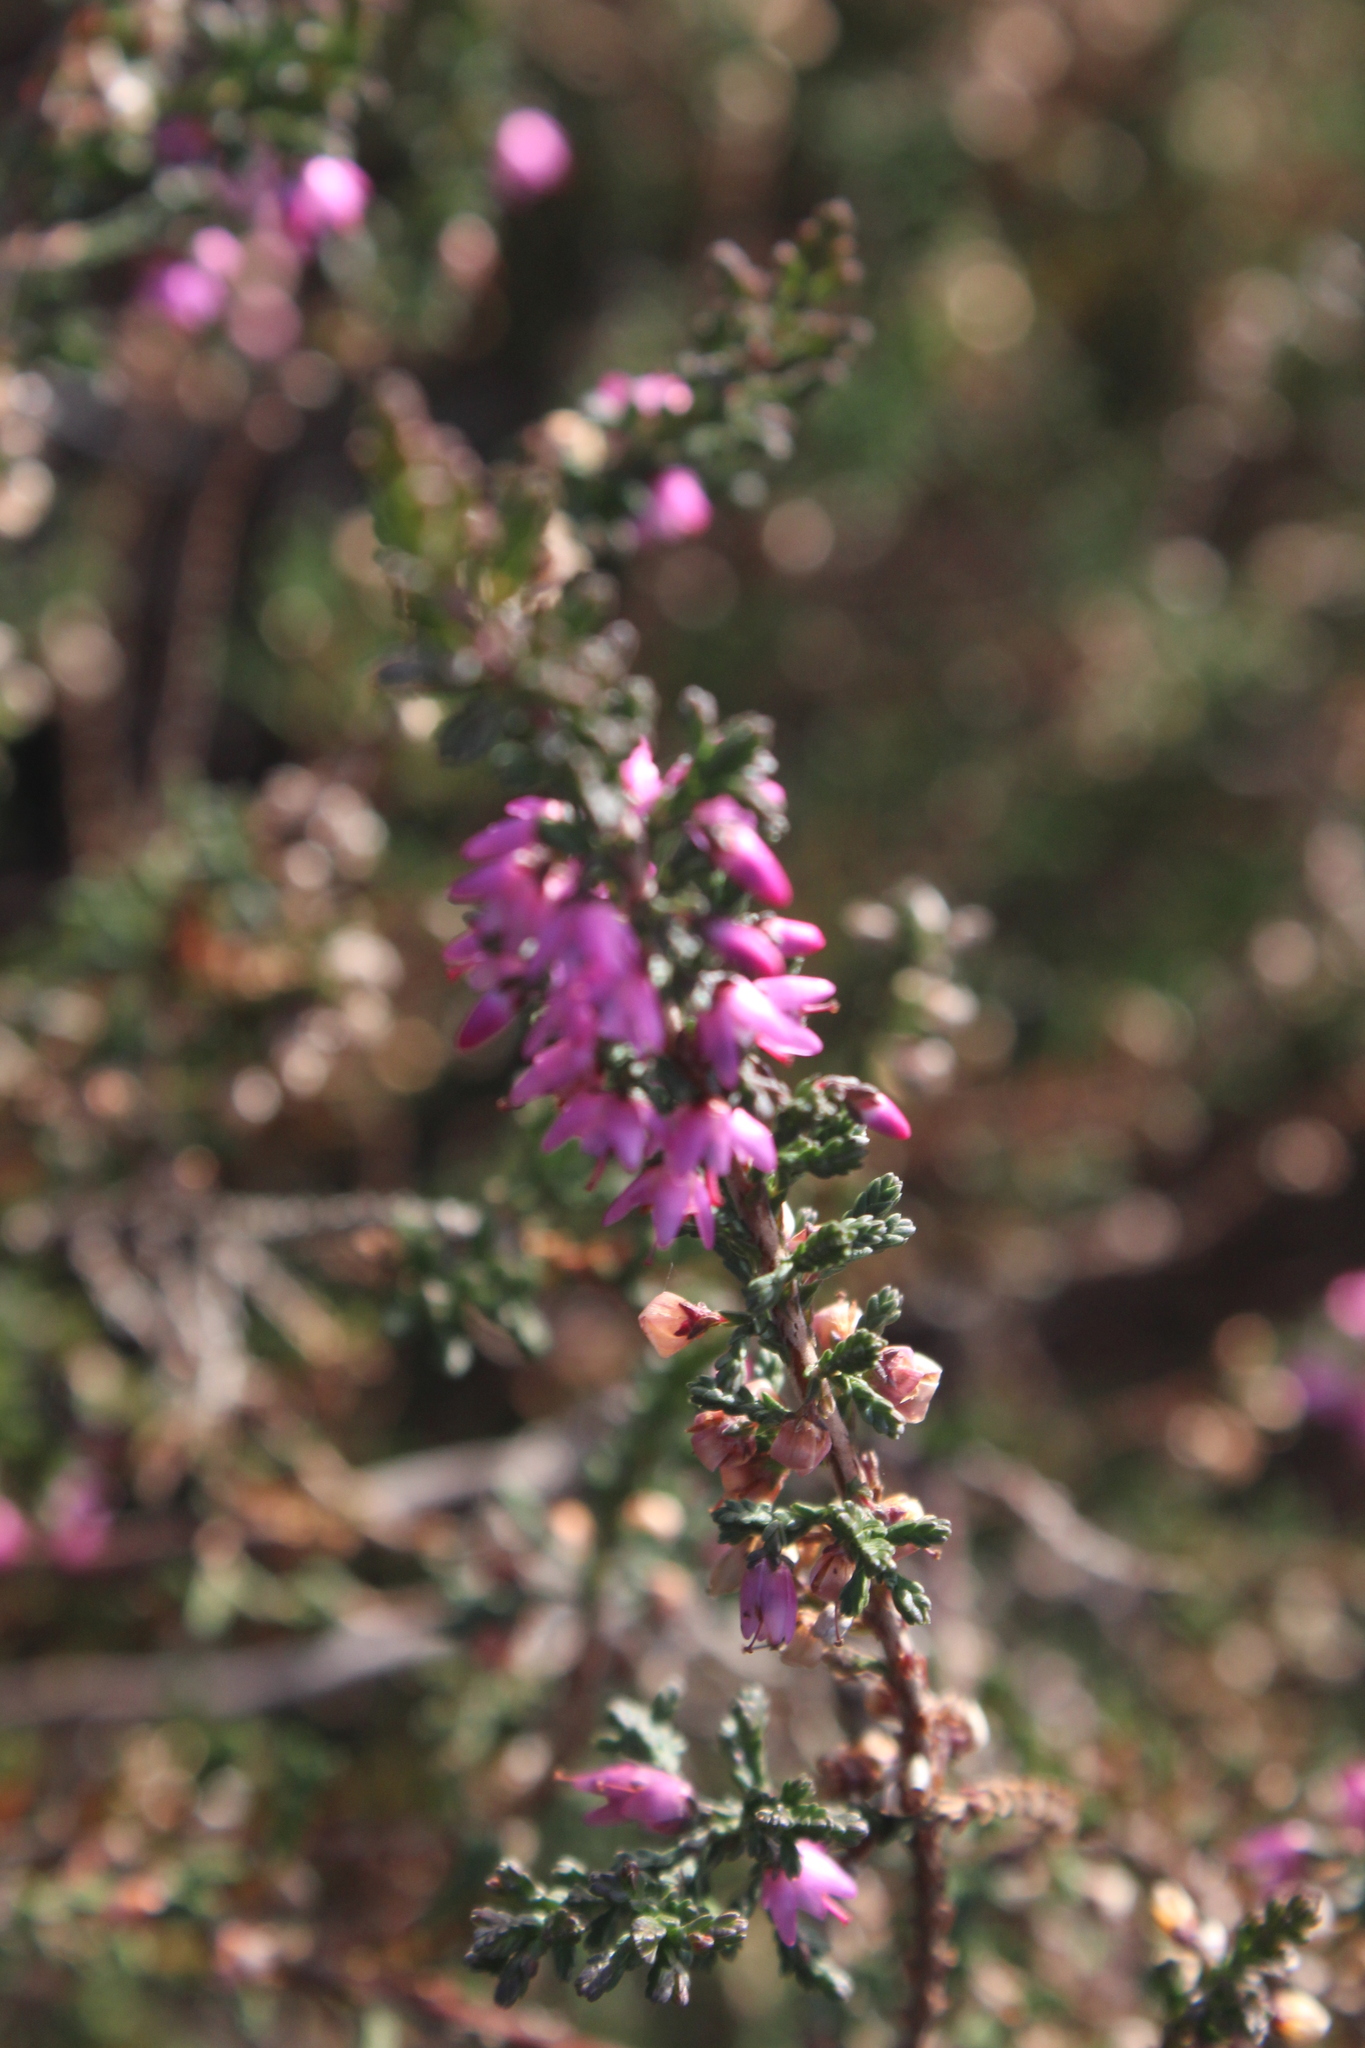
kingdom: Plantae
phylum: Tracheophyta
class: Magnoliopsida
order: Ericales
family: Ericaceae
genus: Calluna
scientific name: Calluna vulgaris
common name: Heather
